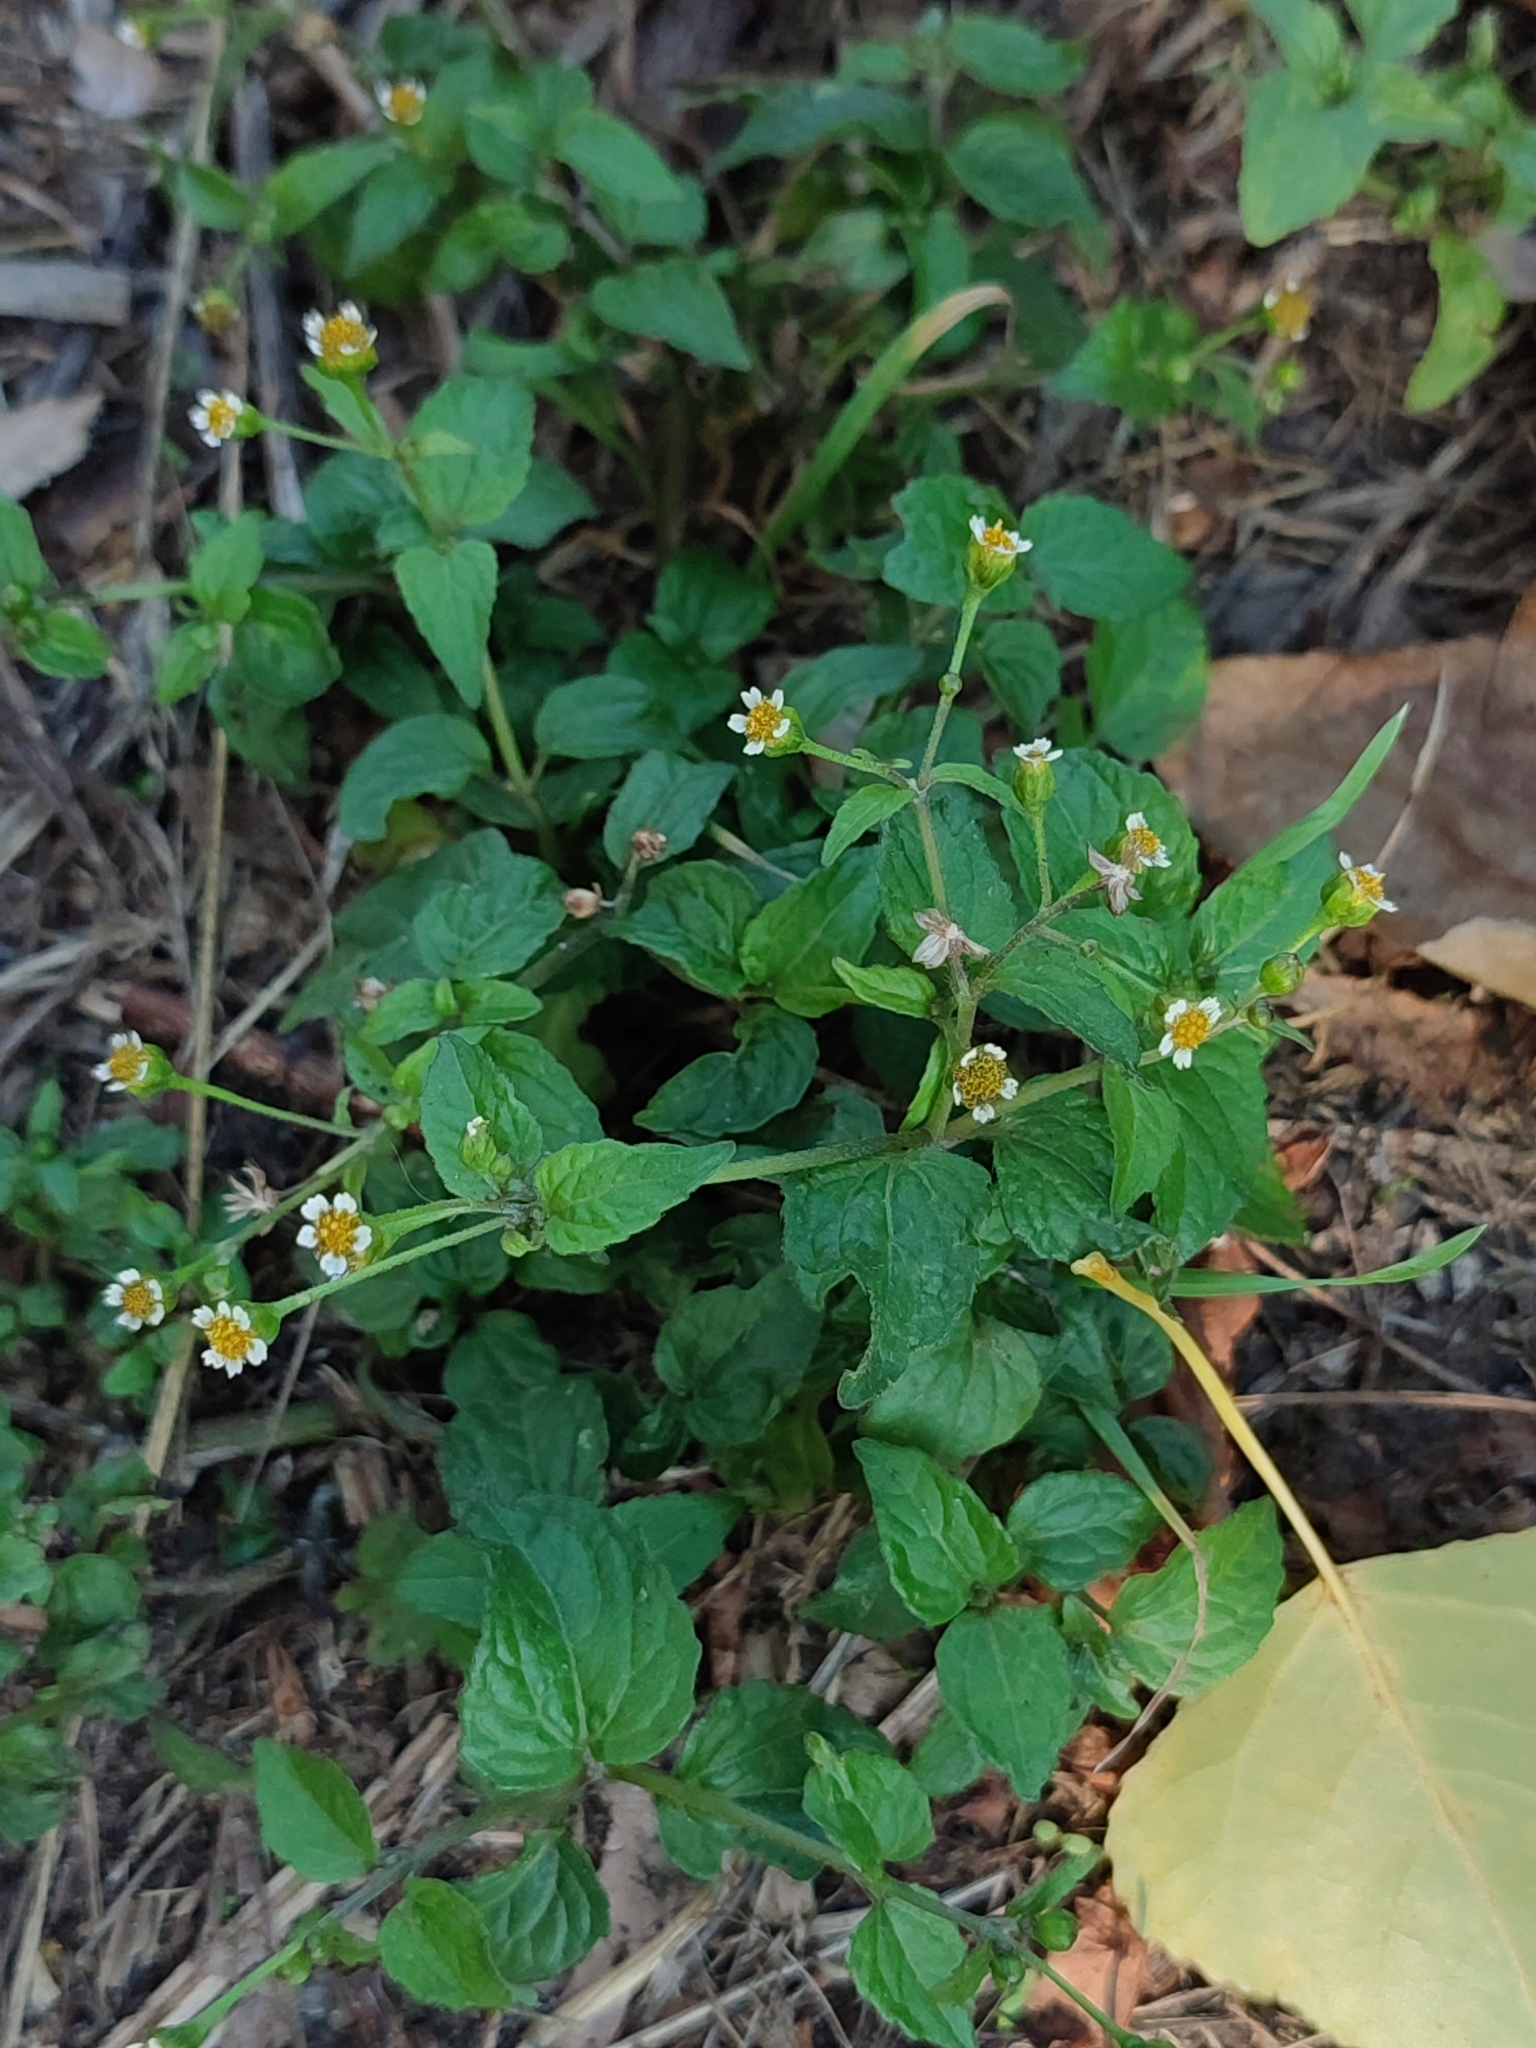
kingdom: Plantae
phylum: Tracheophyta
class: Magnoliopsida
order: Asterales
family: Asteraceae
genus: Galinsoga
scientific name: Galinsoga parviflora
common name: Gallant soldier
